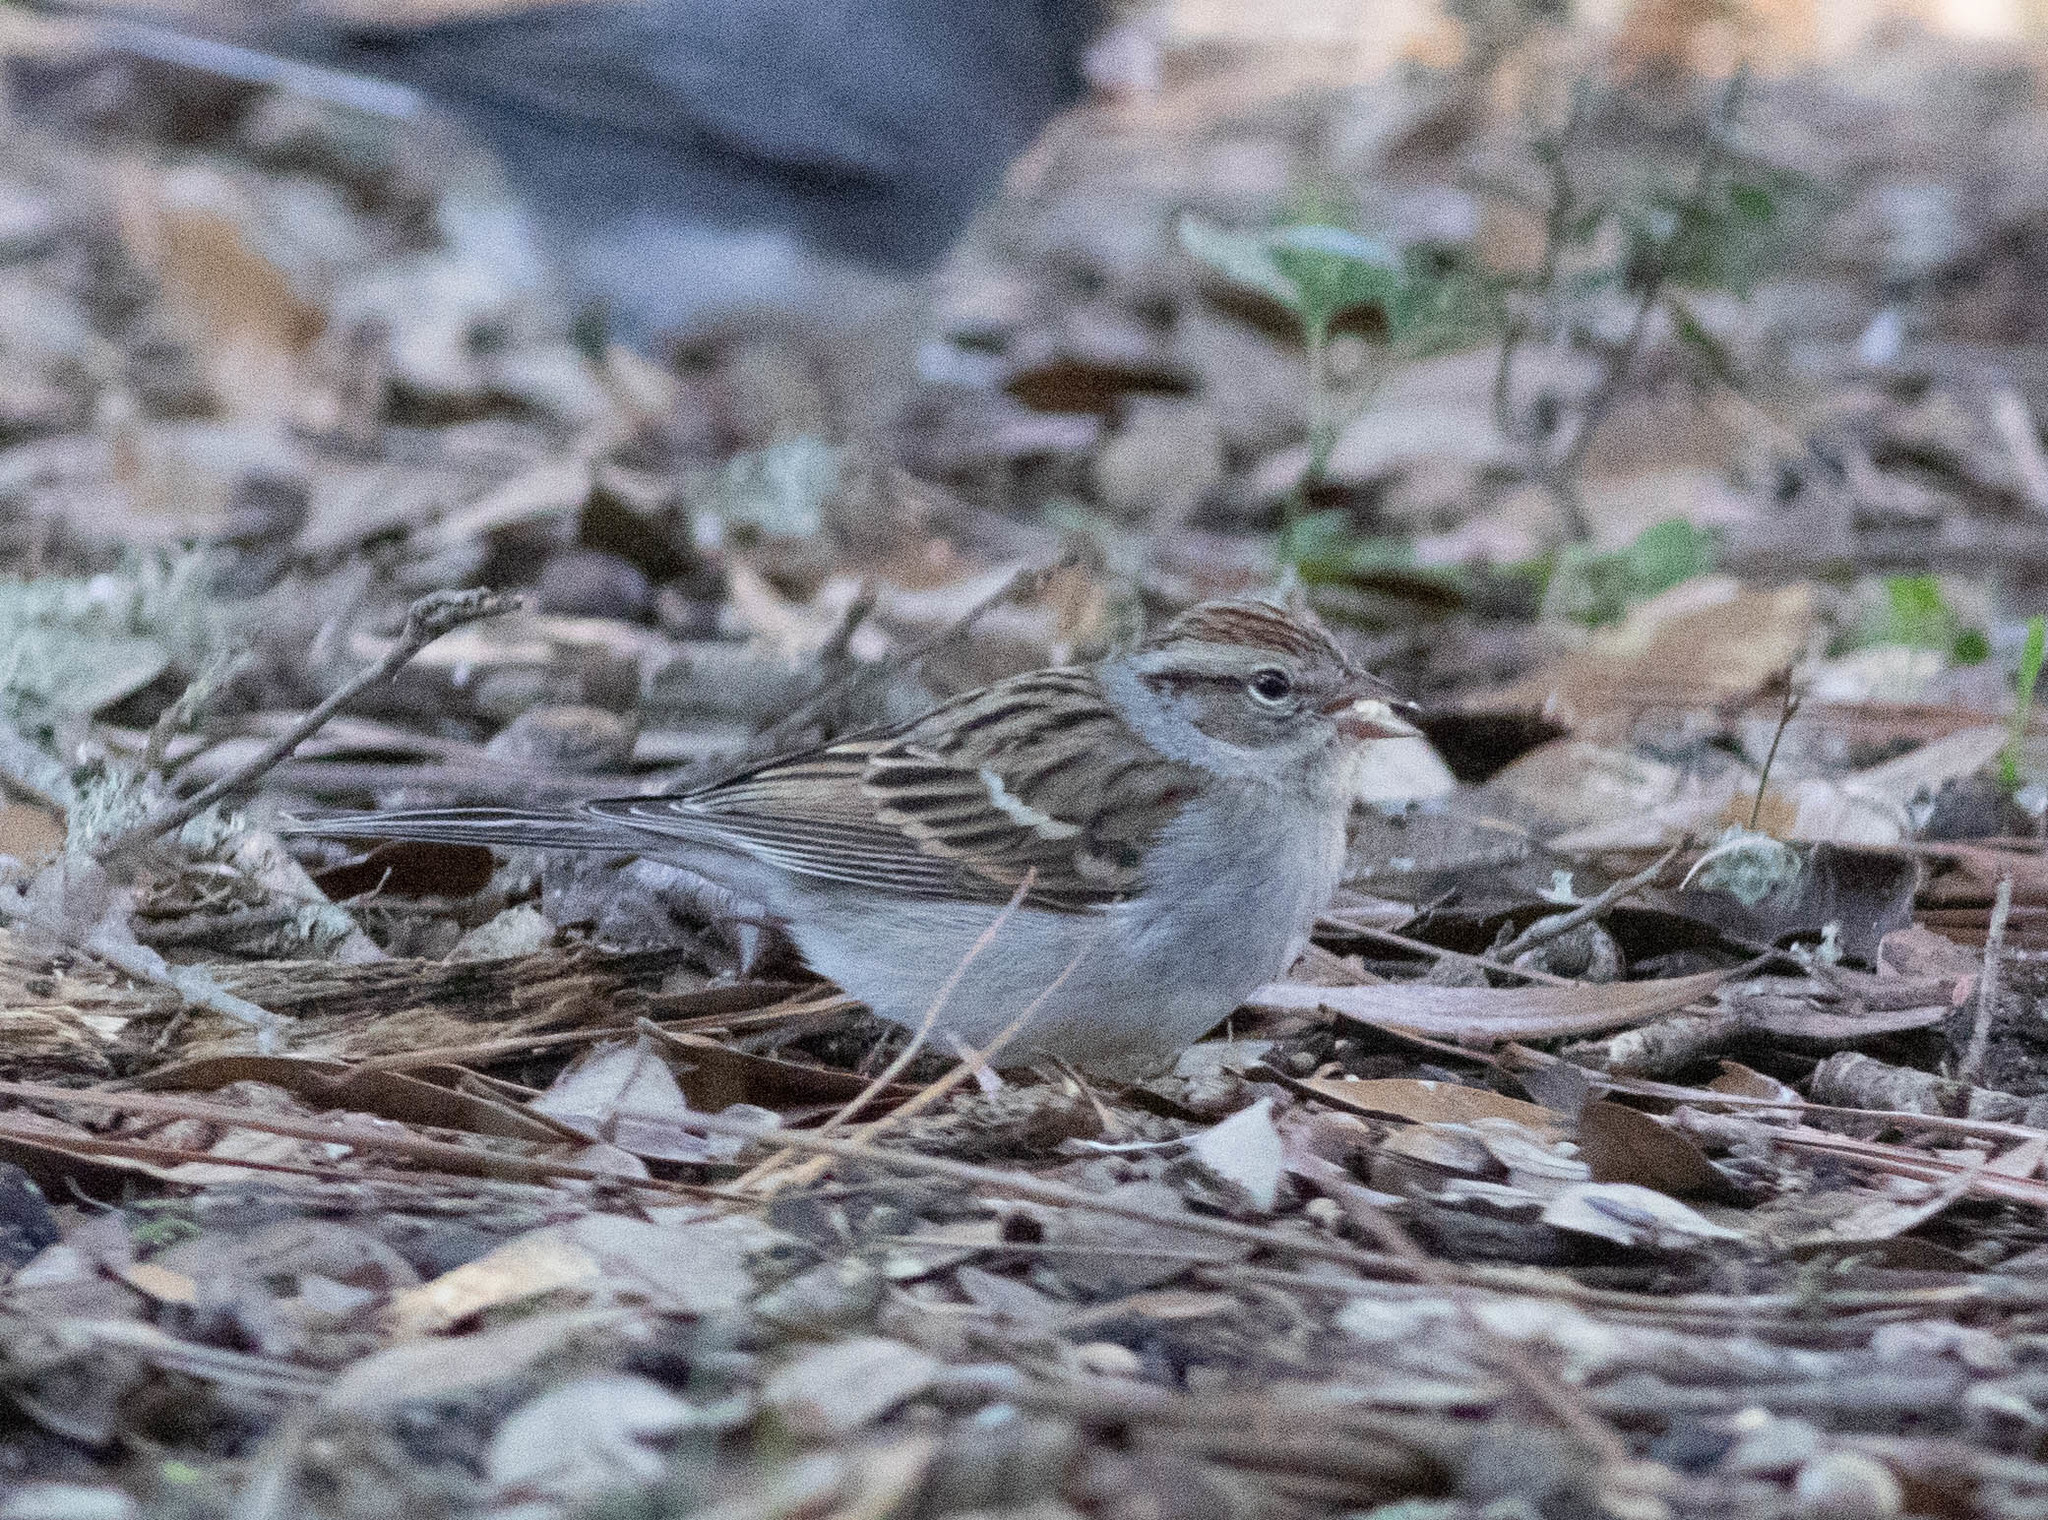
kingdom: Animalia
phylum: Chordata
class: Aves
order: Passeriformes
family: Passerellidae
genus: Spizella
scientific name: Spizella passerina
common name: Chipping sparrow
